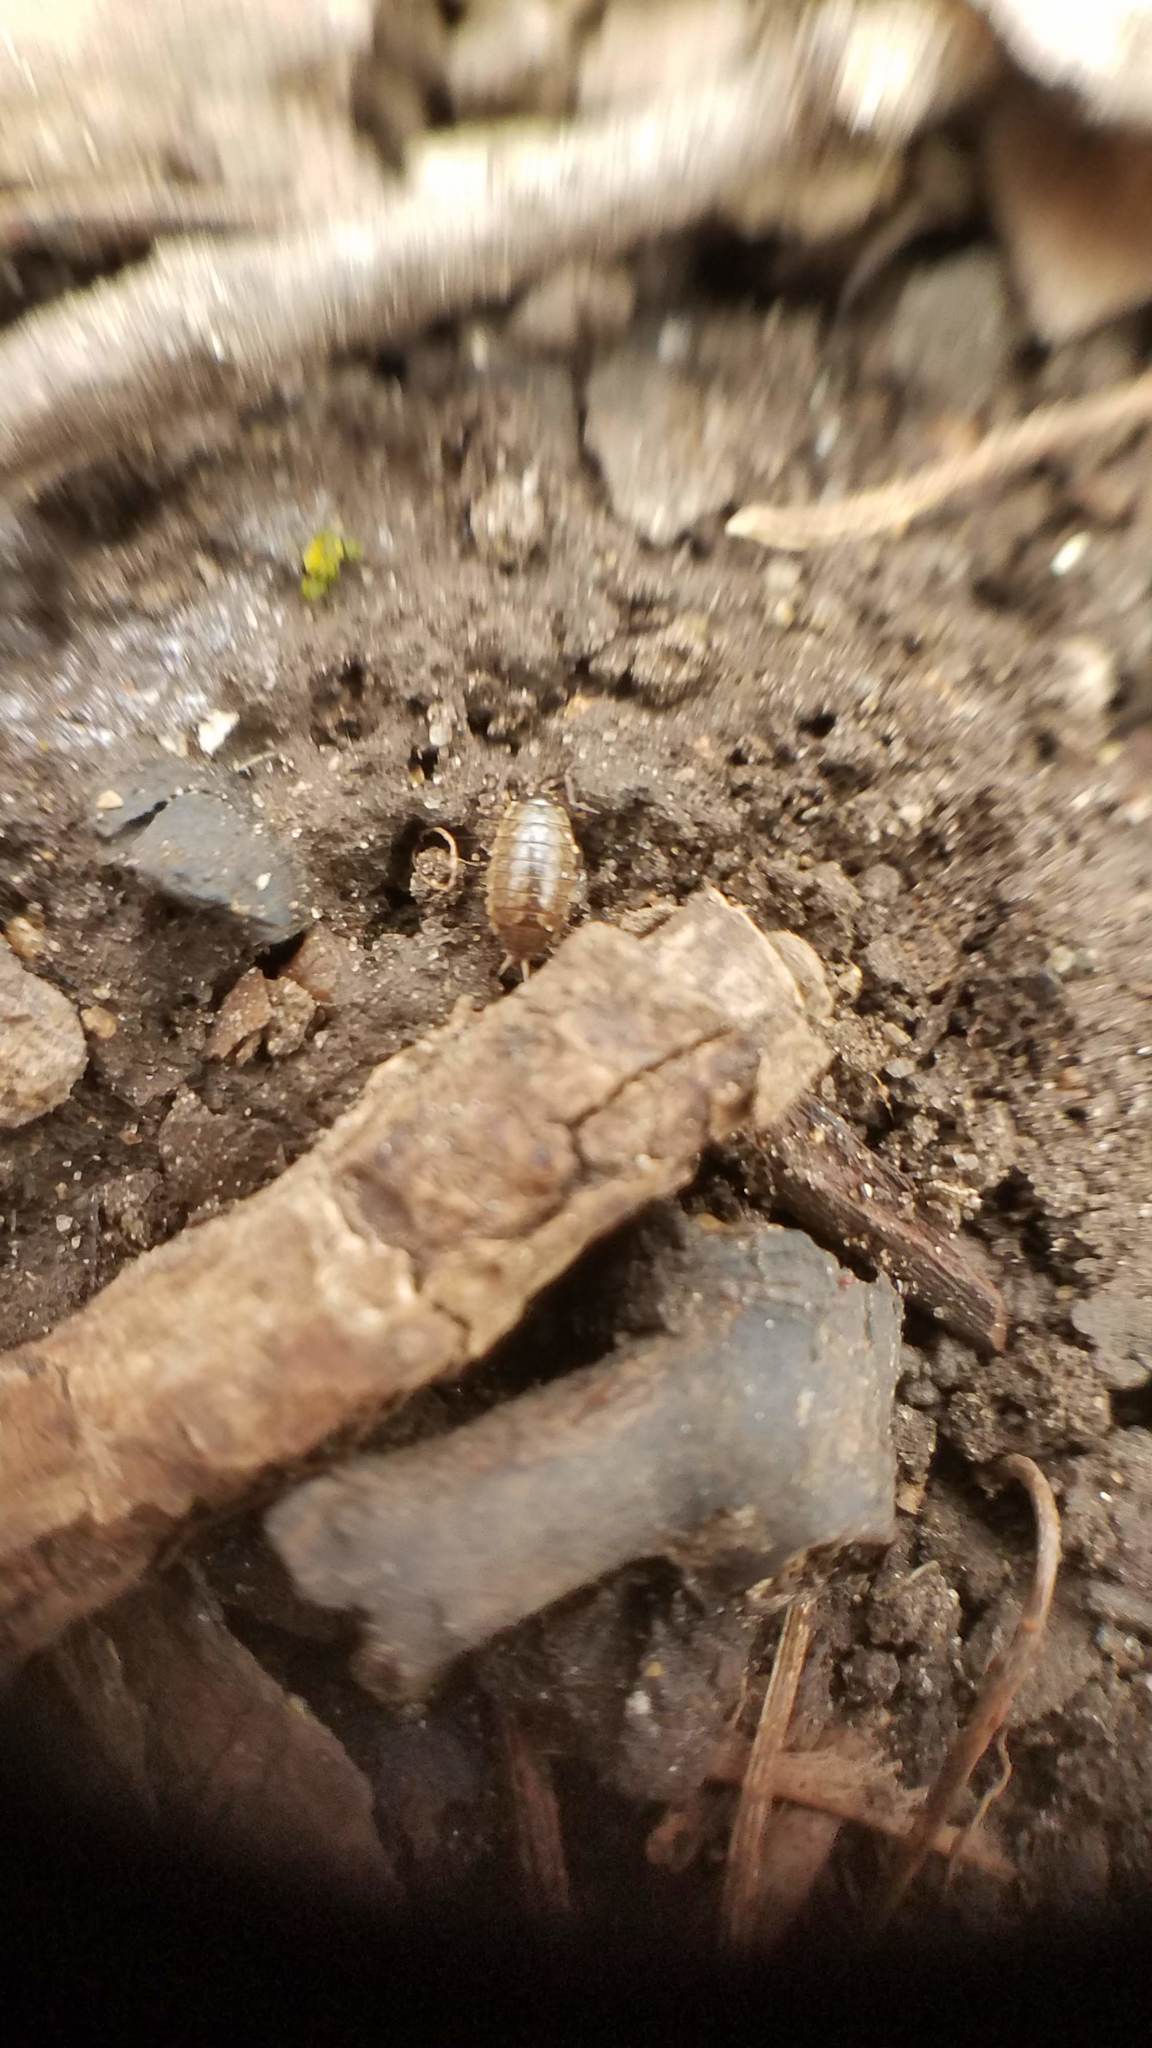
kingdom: Animalia
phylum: Arthropoda
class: Malacostraca
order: Isopoda
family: Philosciidae
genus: Philoscia
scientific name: Philoscia muscorum
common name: Common striped woodlouse
